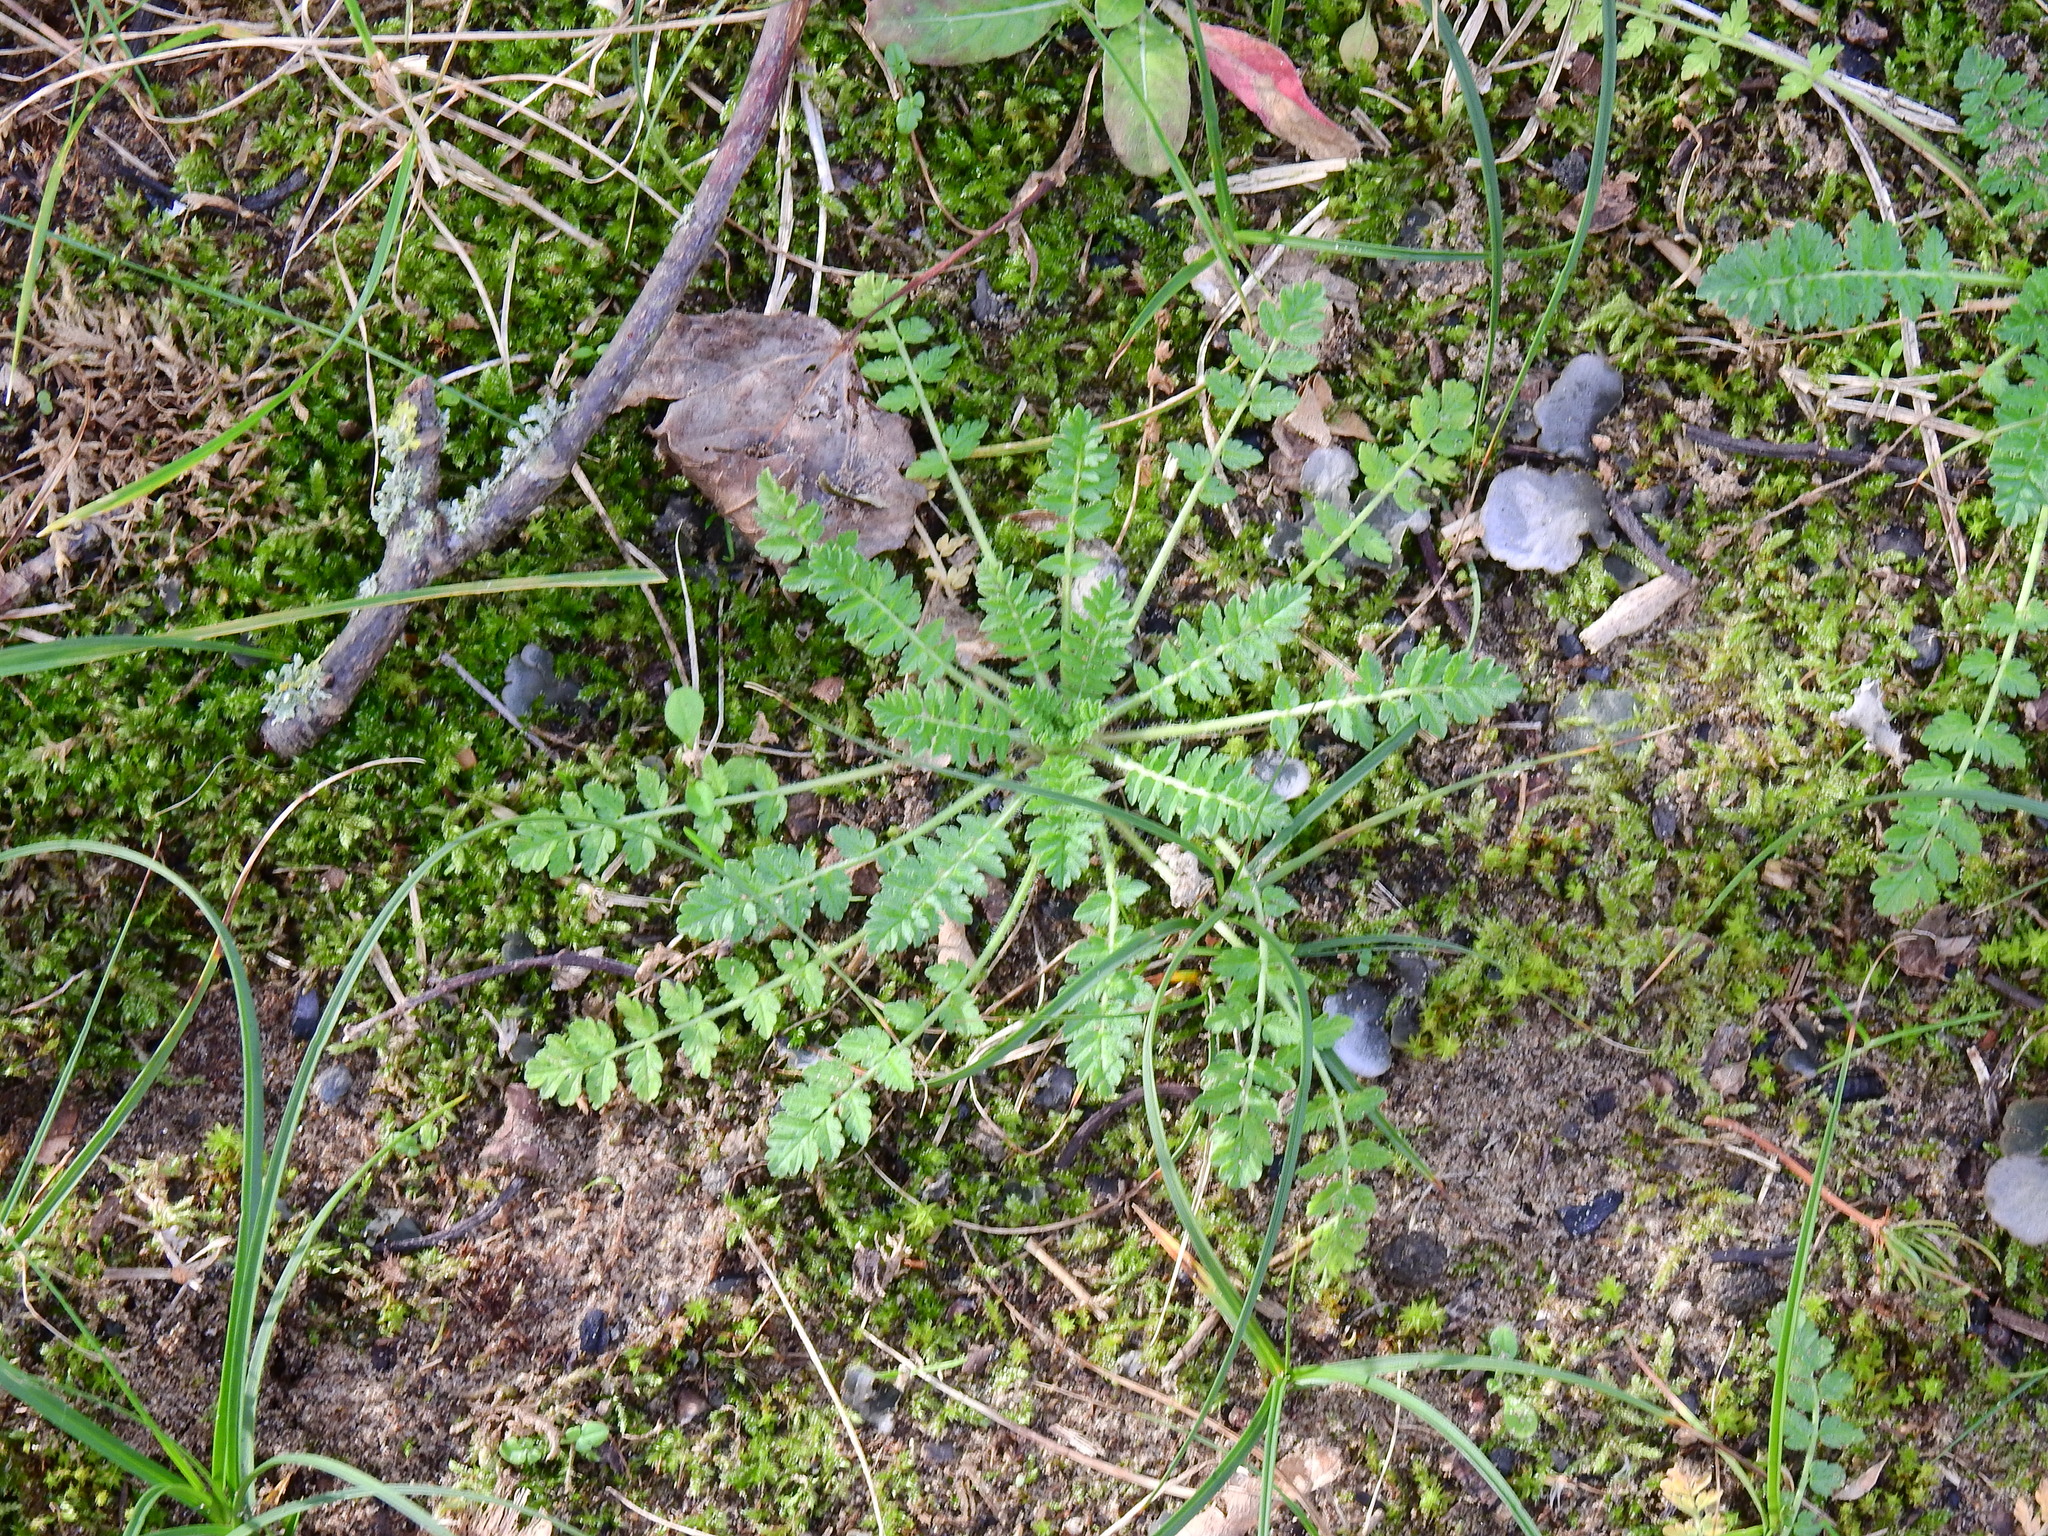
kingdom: Plantae
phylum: Tracheophyta
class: Magnoliopsida
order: Geraniales
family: Geraniaceae
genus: Erodium
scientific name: Erodium cicutarium
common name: Common stork's-bill
